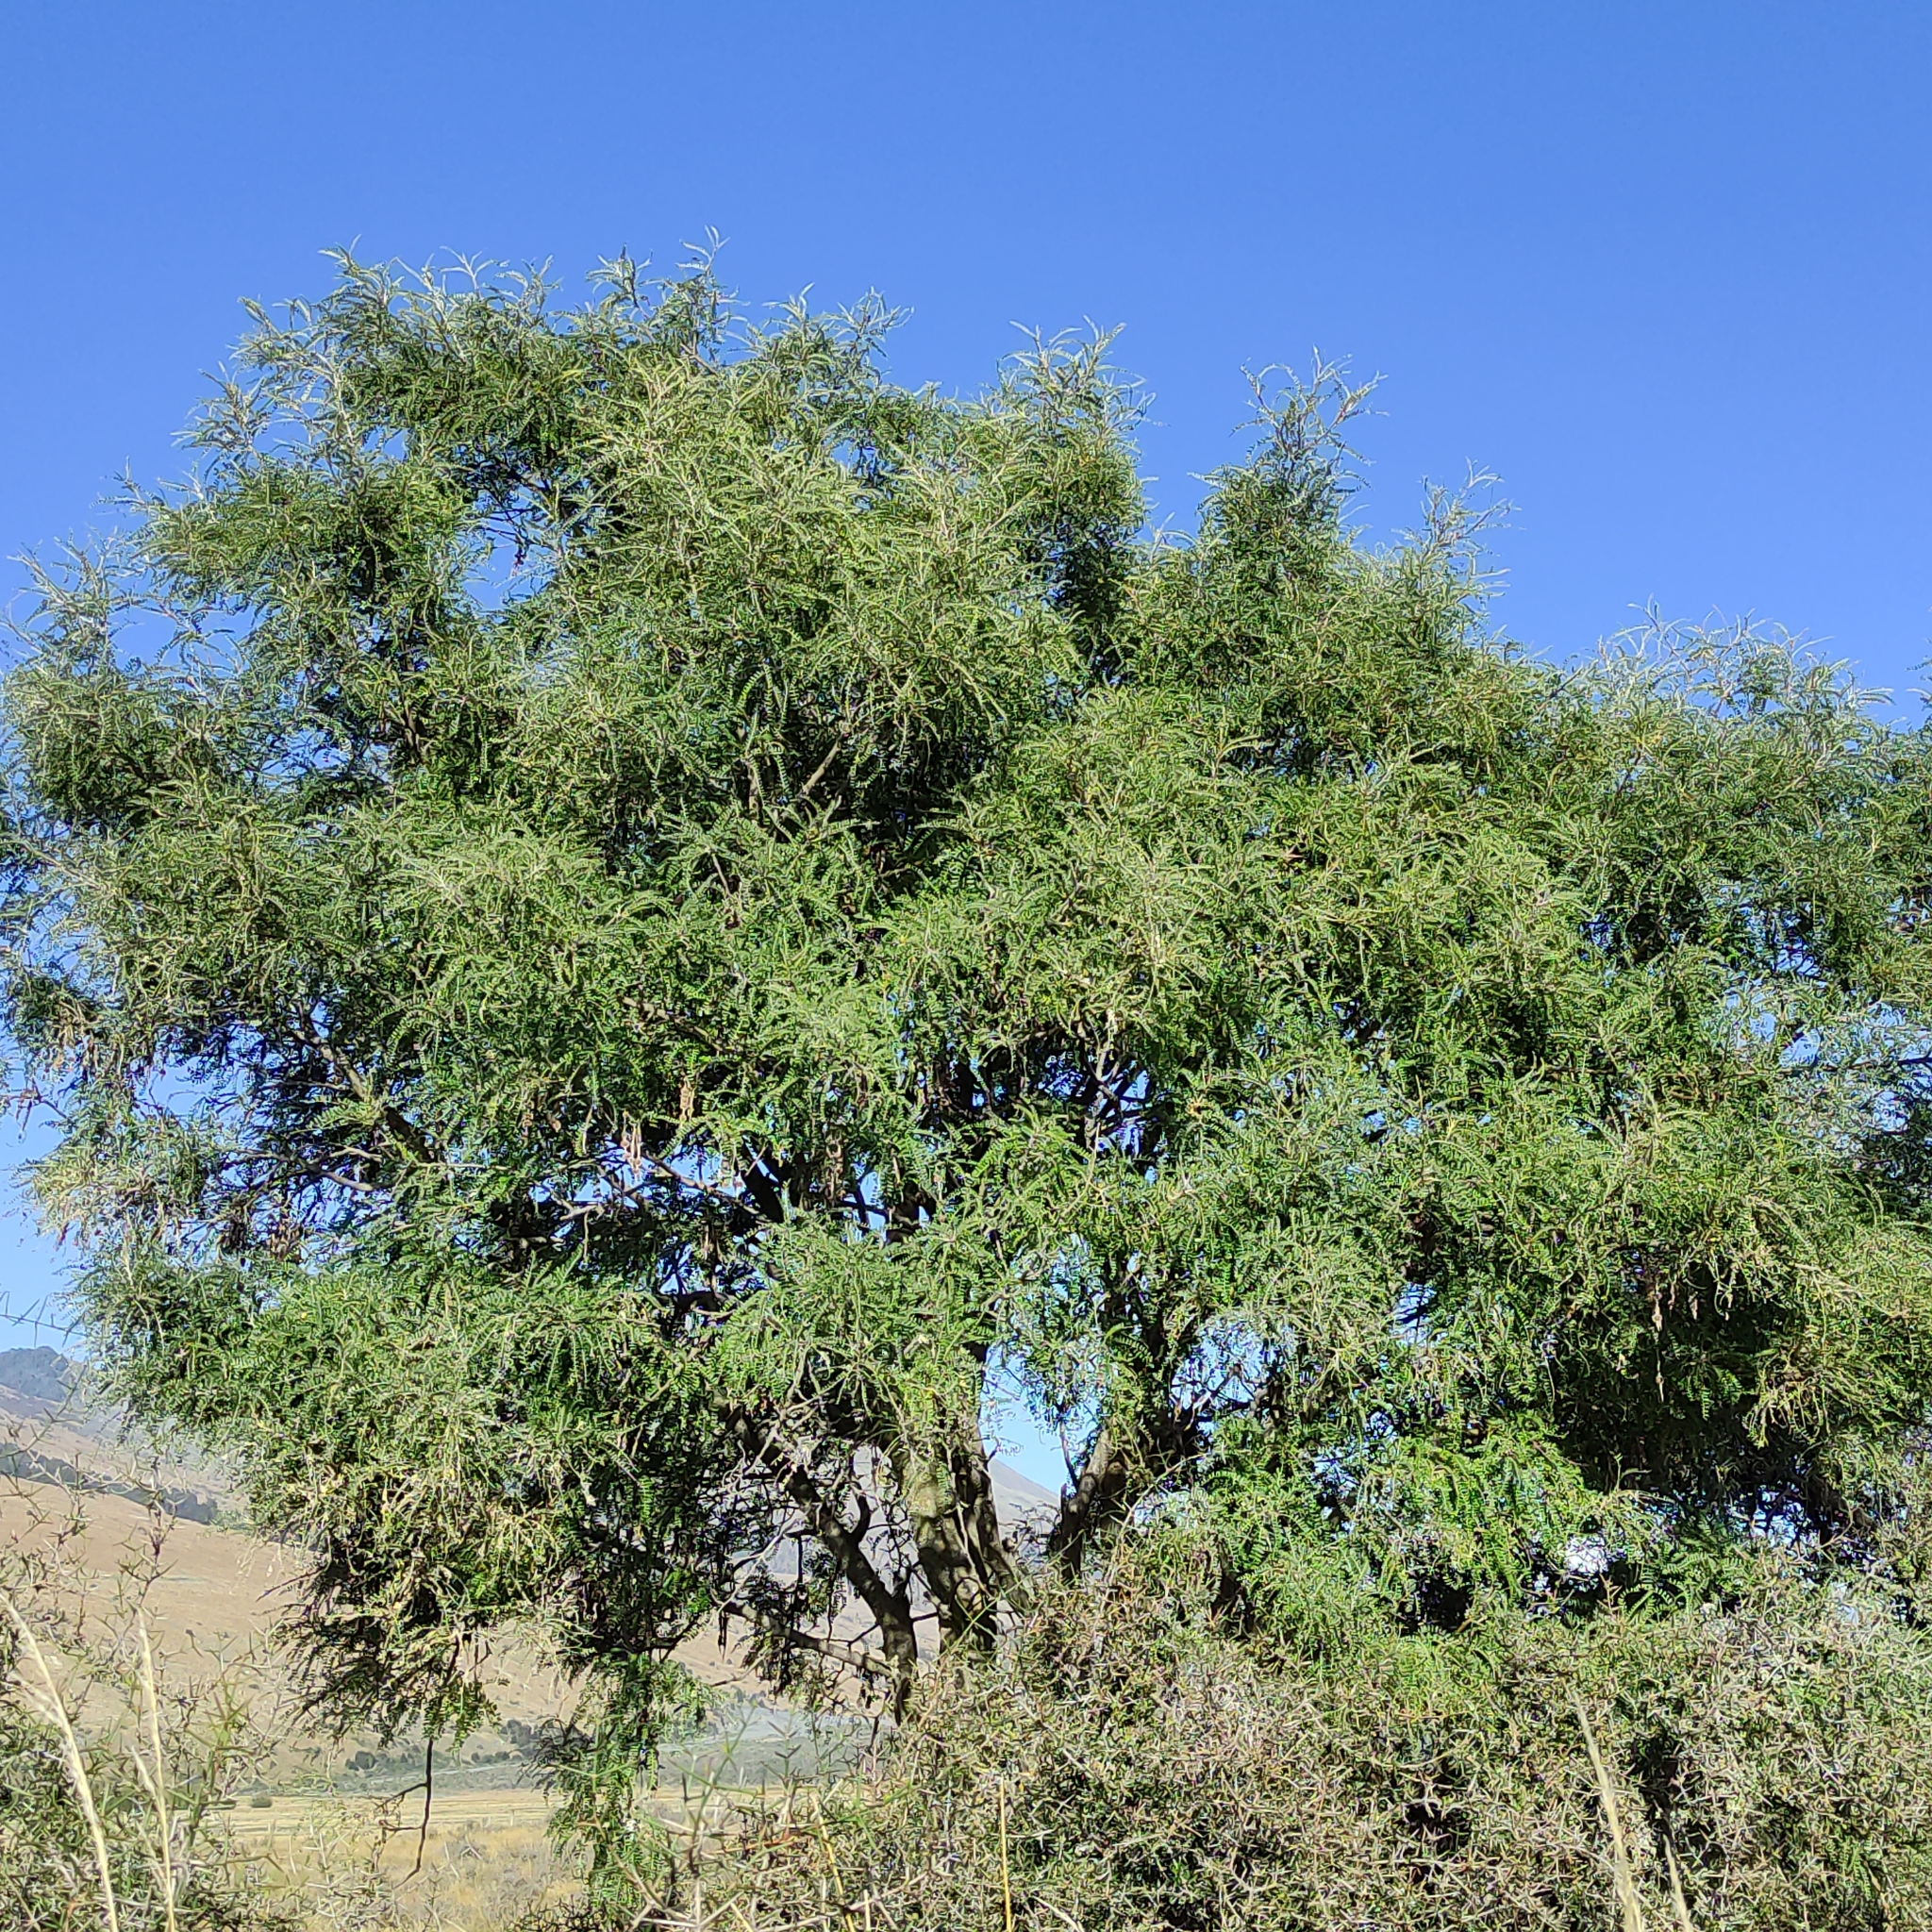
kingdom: Plantae
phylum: Tracheophyta
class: Magnoliopsida
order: Fabales
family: Fabaceae
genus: Sophora
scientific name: Sophora microphylla
